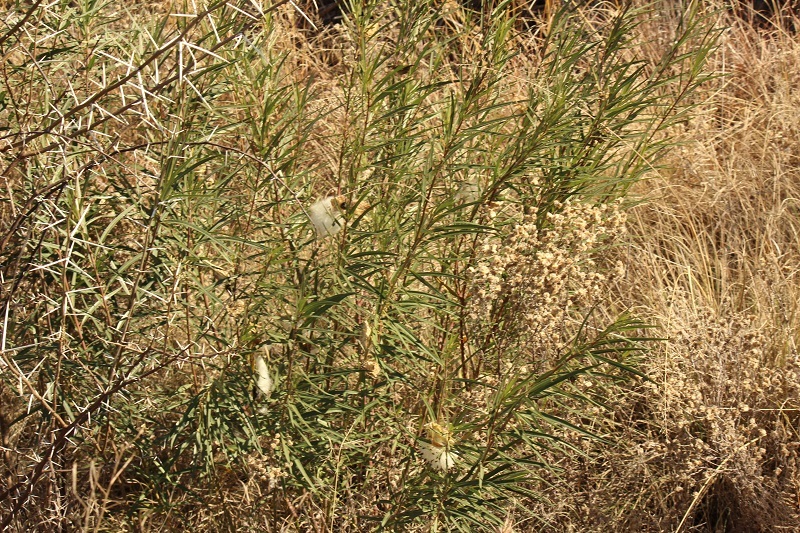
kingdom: Plantae
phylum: Tracheophyta
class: Magnoliopsida
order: Gentianales
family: Apocynaceae
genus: Gomphocarpus
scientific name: Gomphocarpus fruticosus
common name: Milkweed
